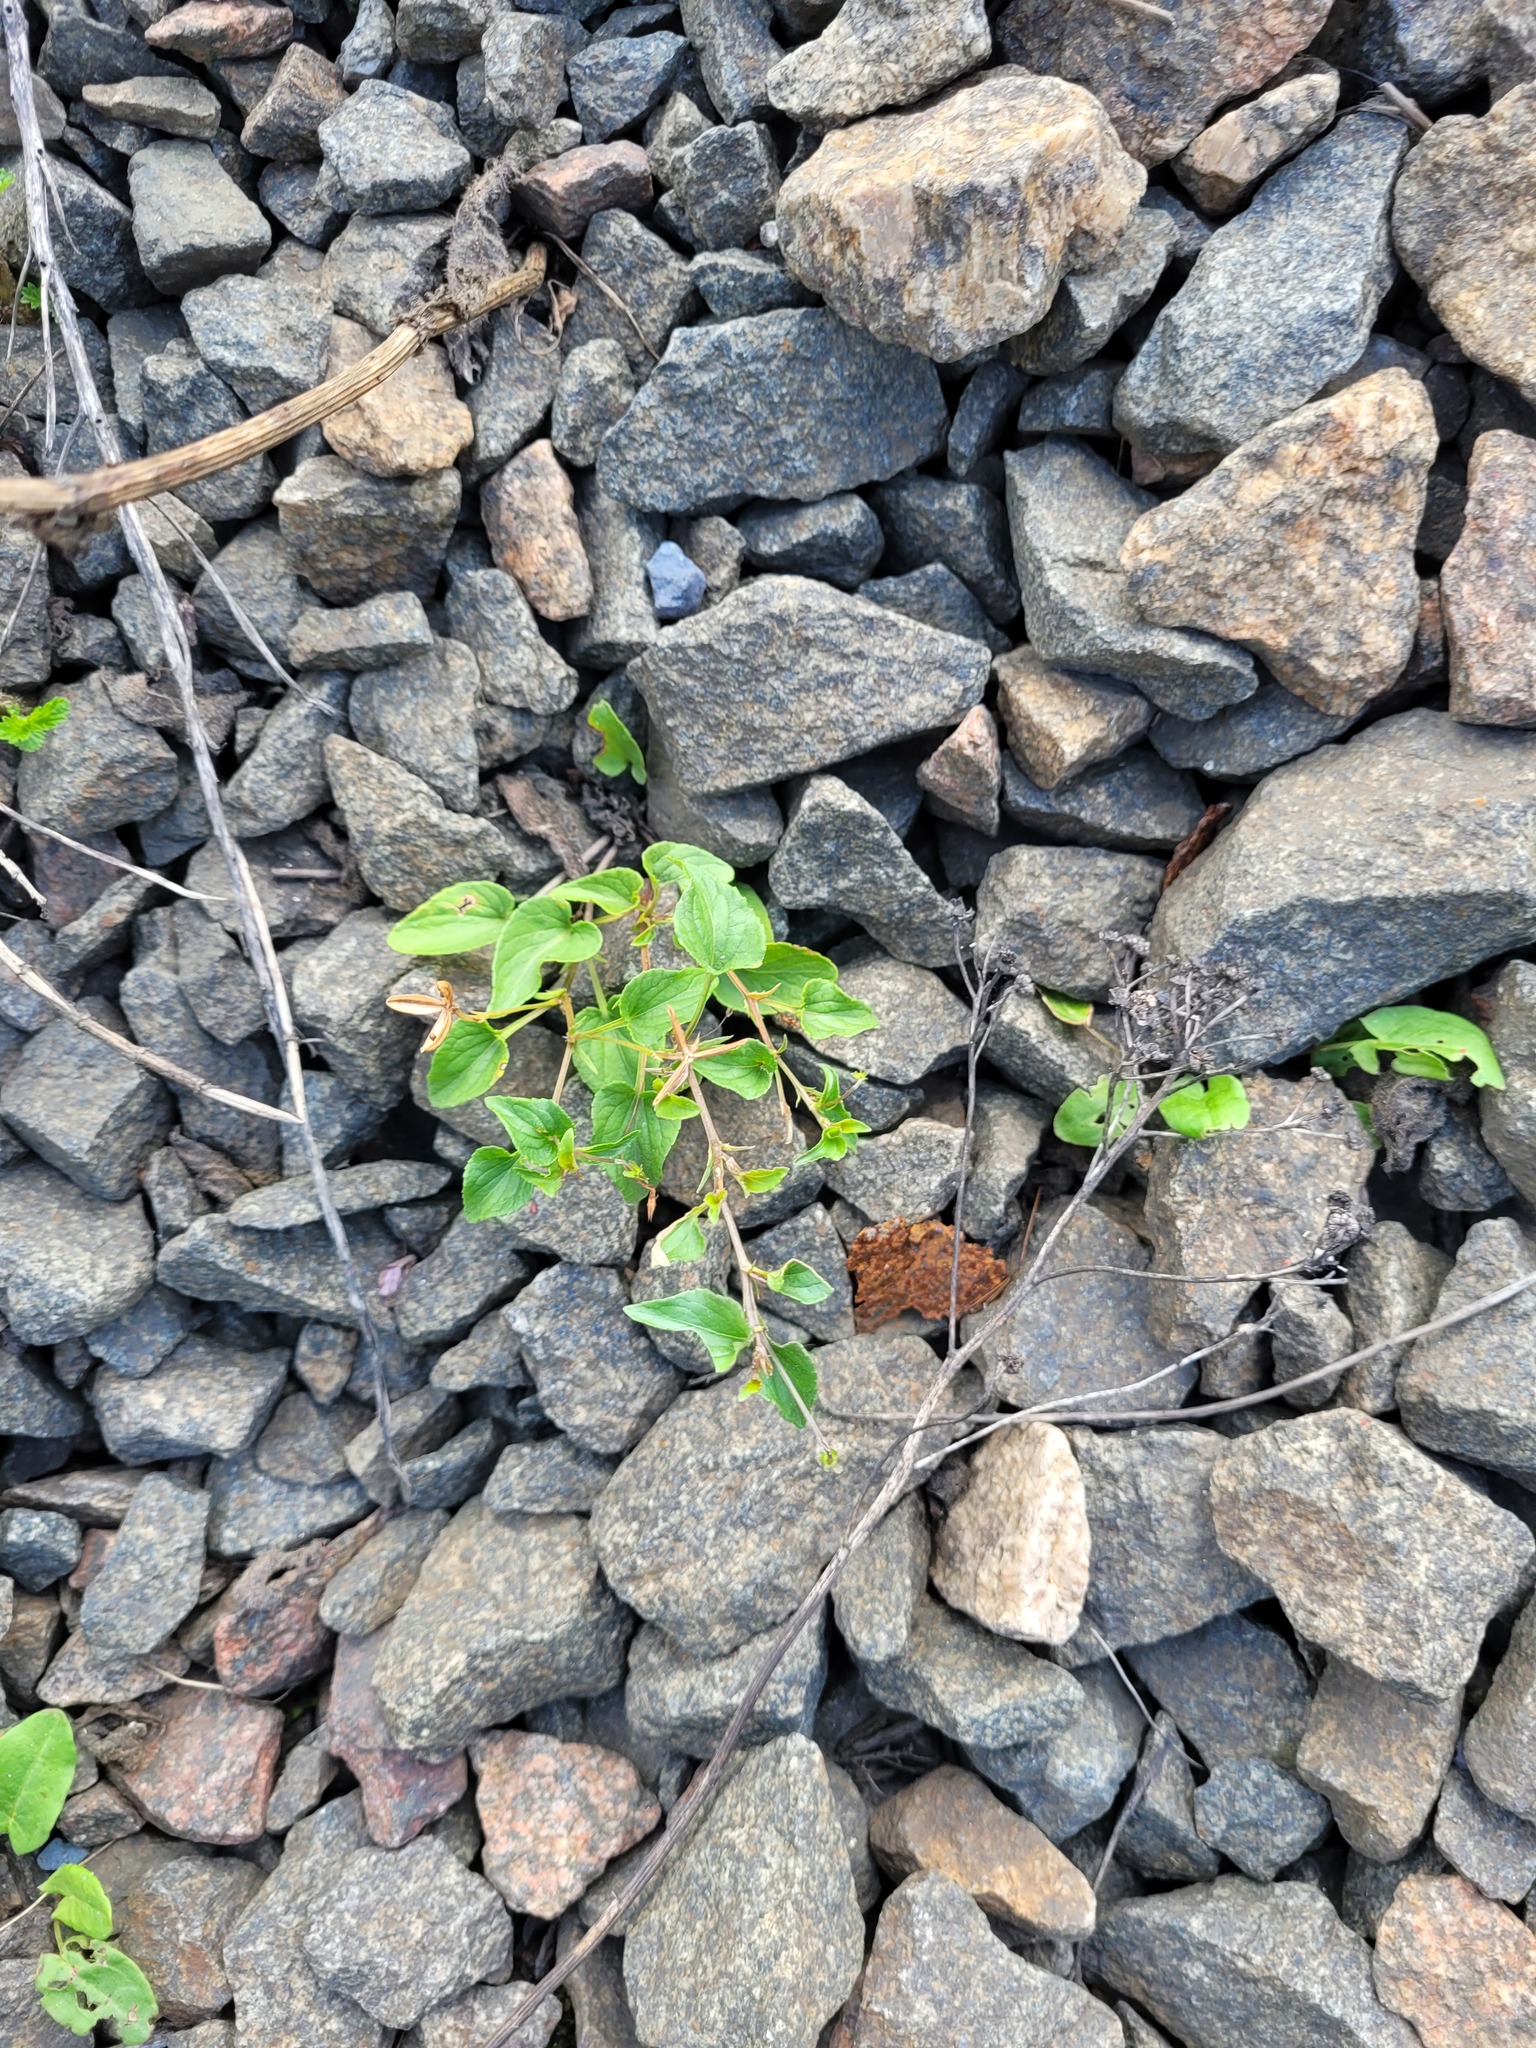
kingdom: Plantae
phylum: Tracheophyta
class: Magnoliopsida
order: Malpighiales
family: Violaceae
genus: Viola
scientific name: Viola canina
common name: Heath dog-violet
